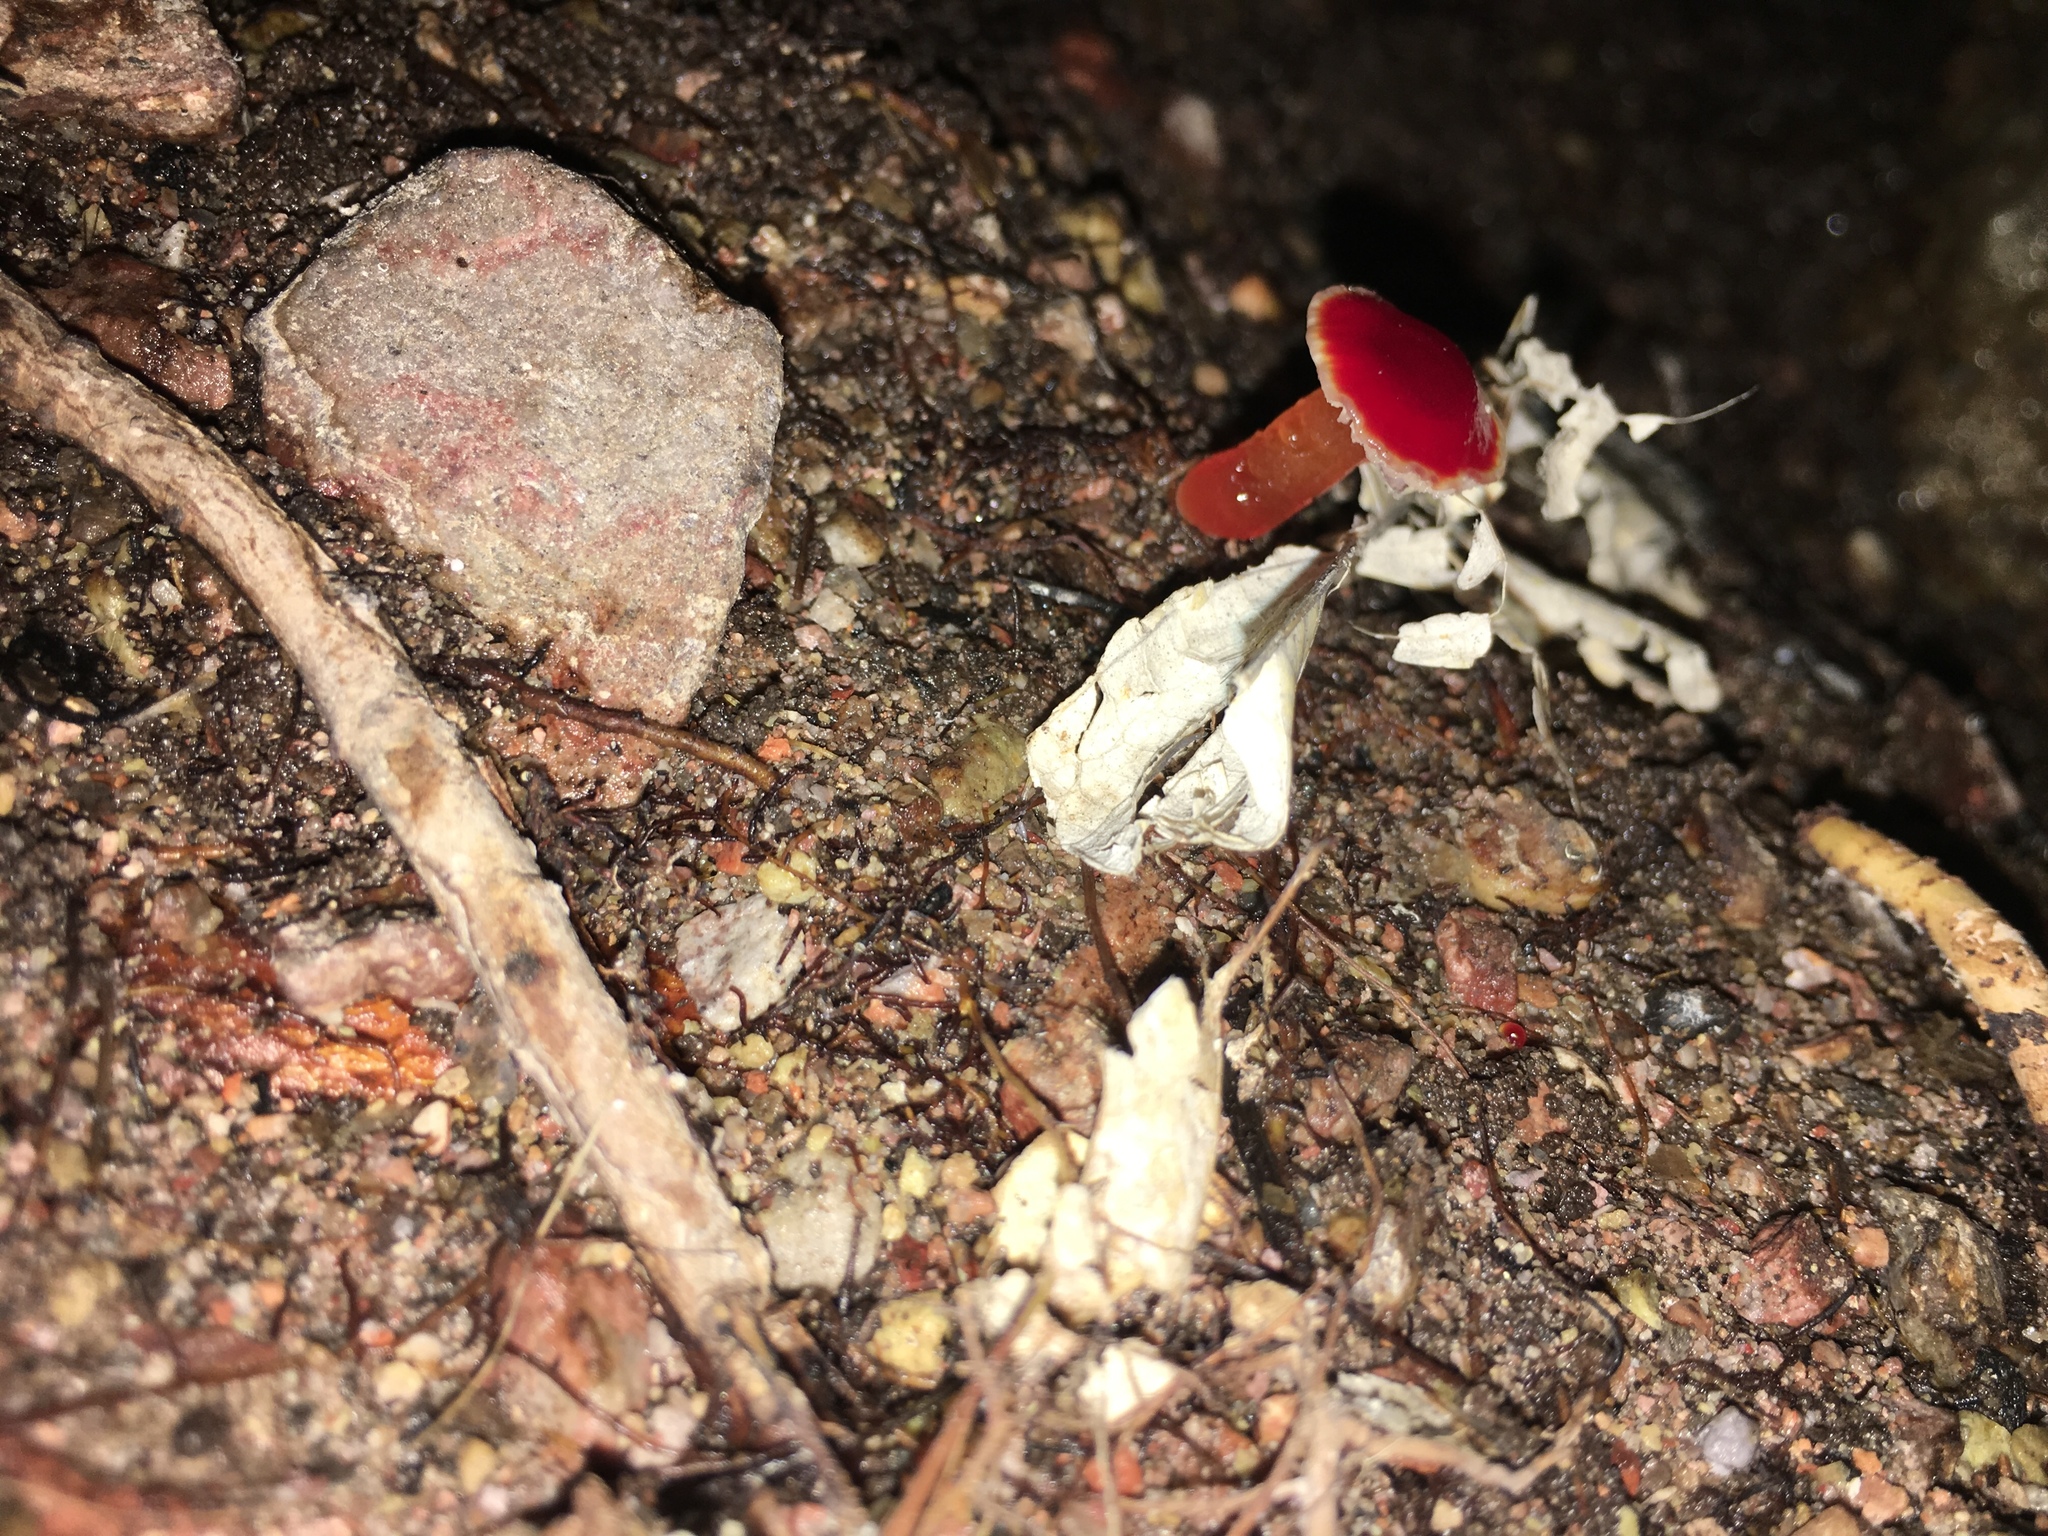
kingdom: Fungi
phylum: Basidiomycota
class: Agaricomycetes
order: Agaricales
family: Hygrophoraceae
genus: Hygrocybe
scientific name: Hygrocybe minutula
